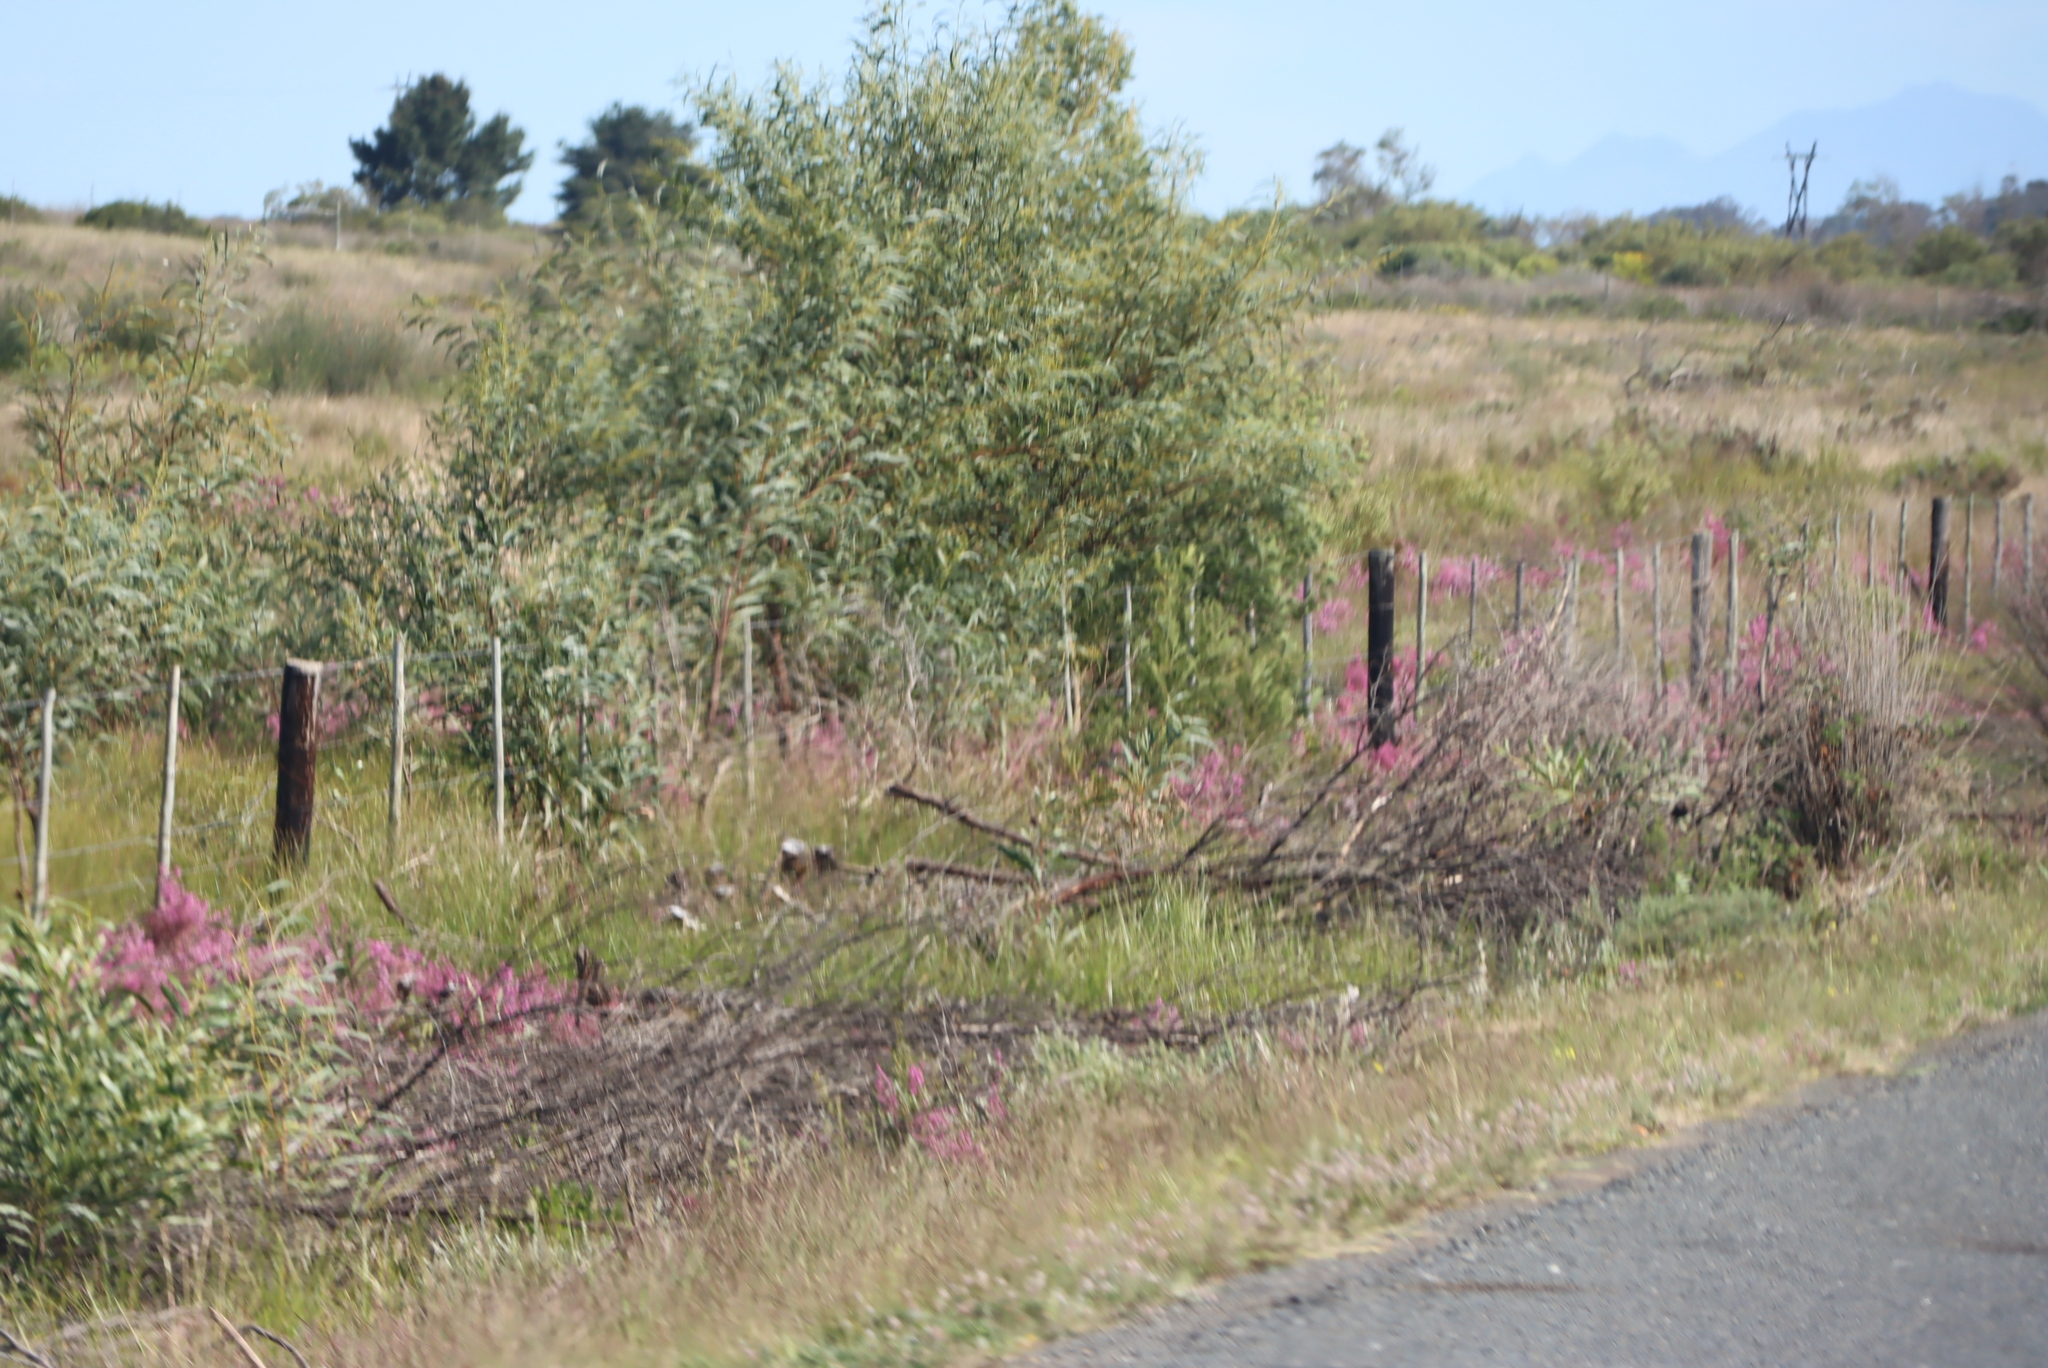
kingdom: Plantae
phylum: Tracheophyta
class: Magnoliopsida
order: Fabales
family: Fabaceae
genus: Acacia
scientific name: Acacia saligna
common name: Orange wattle
